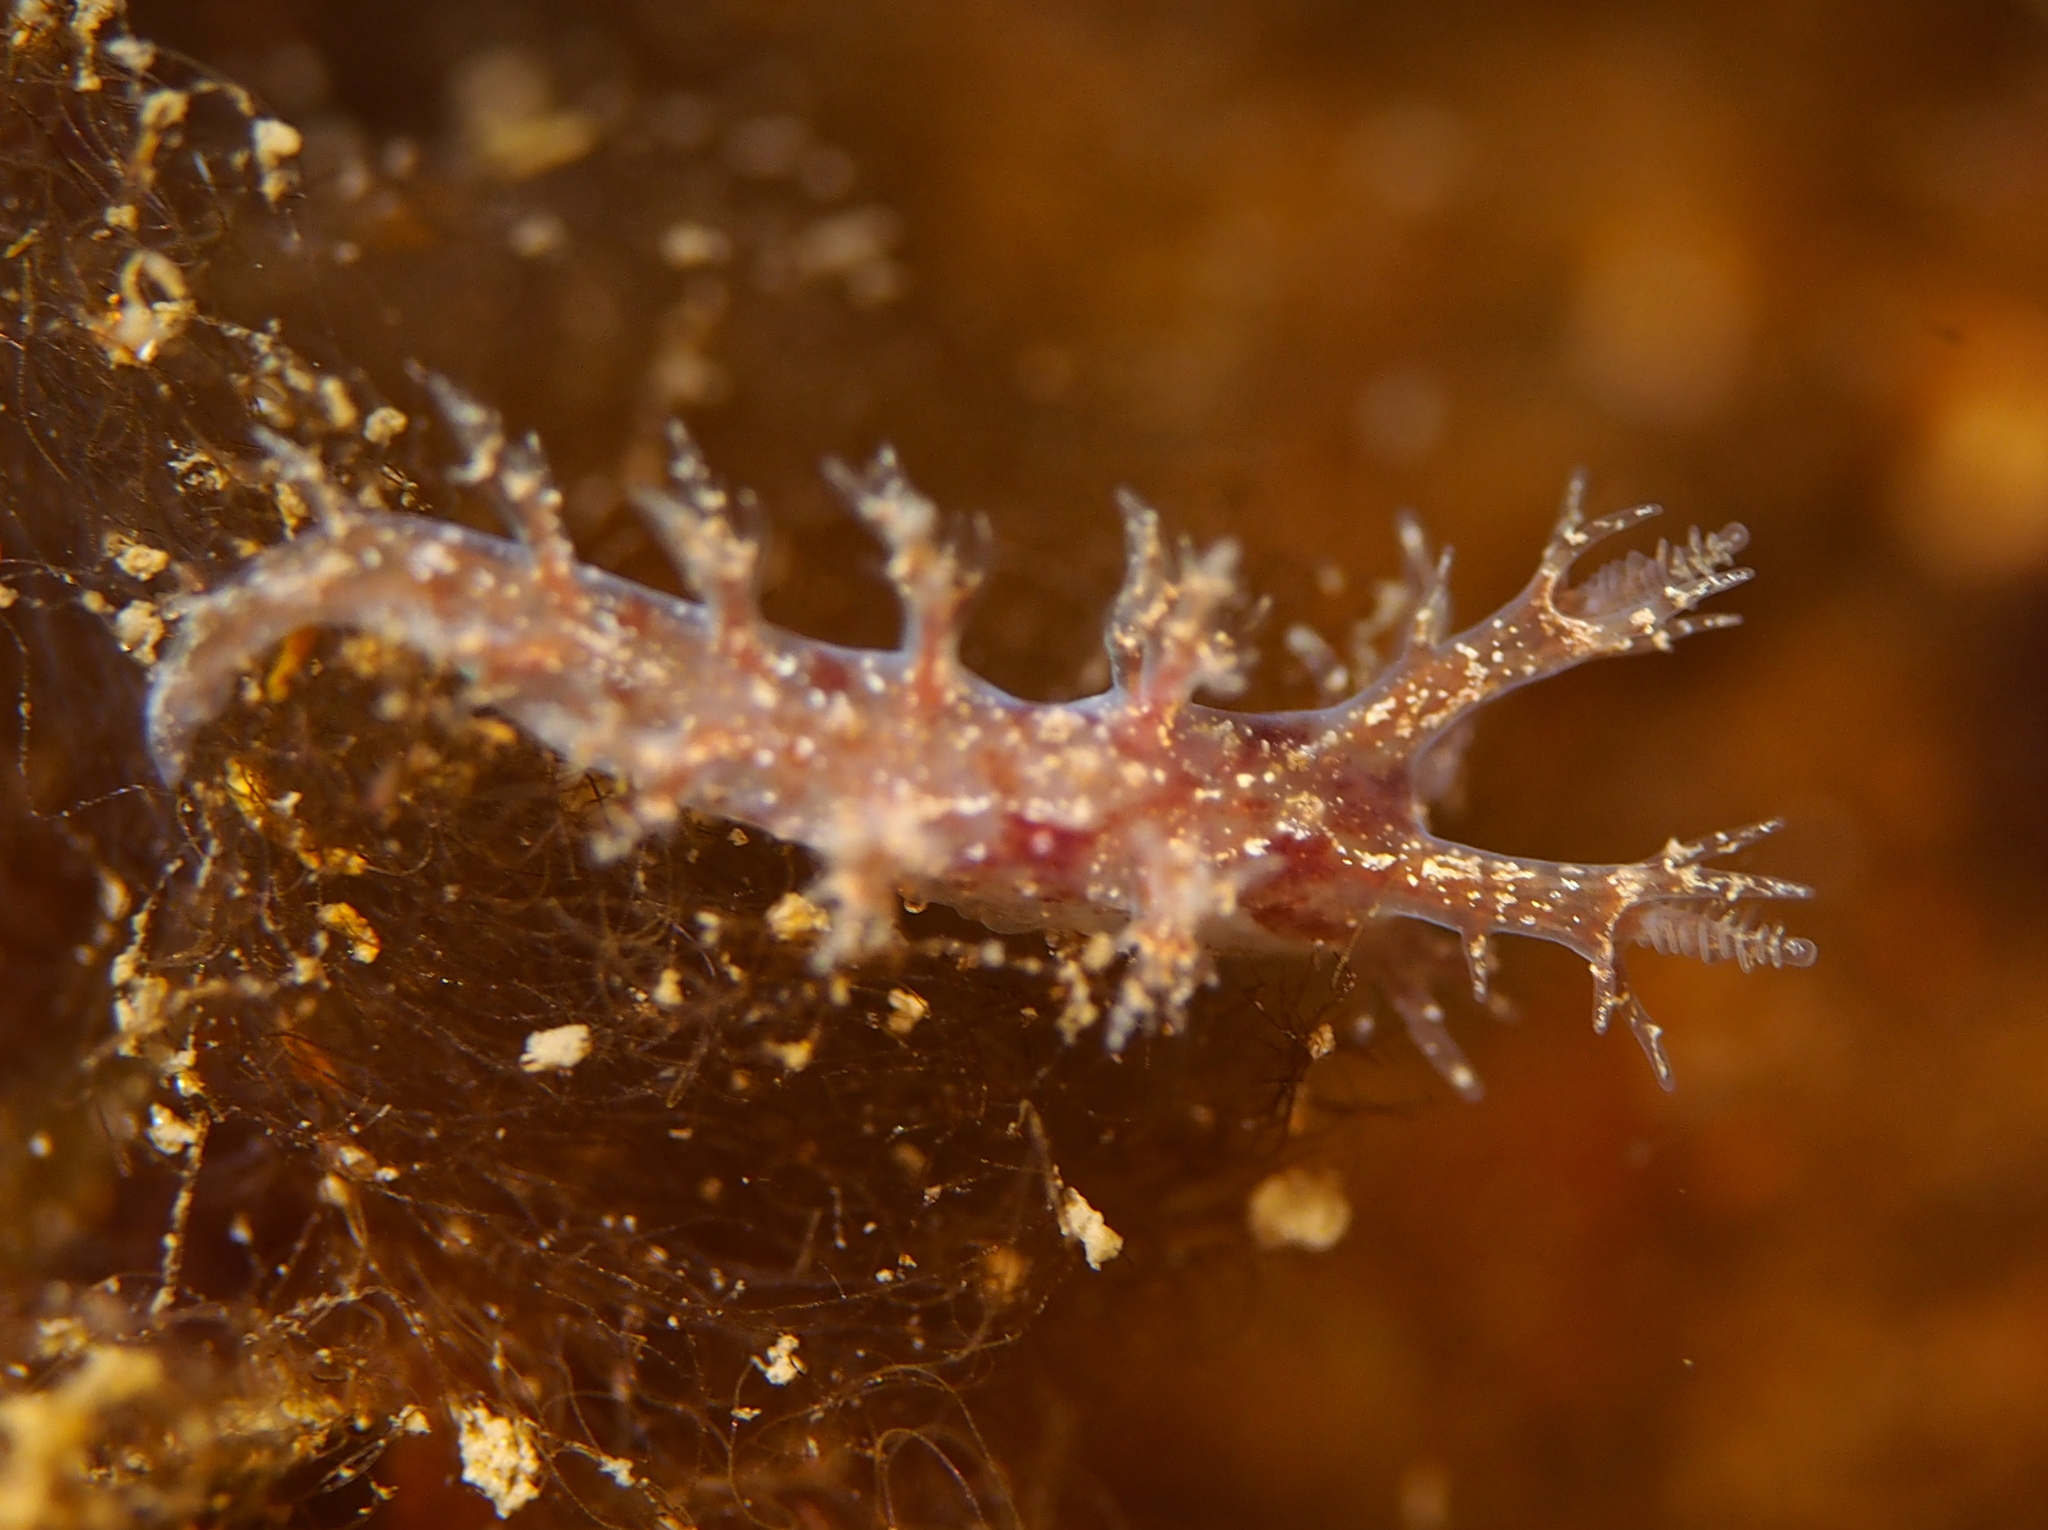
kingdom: Animalia
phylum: Mollusca
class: Gastropoda
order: Nudibranchia
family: Dendronotidae
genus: Dendronotus
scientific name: Dendronotus frondosus
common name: Bushy-backed nudibranch
